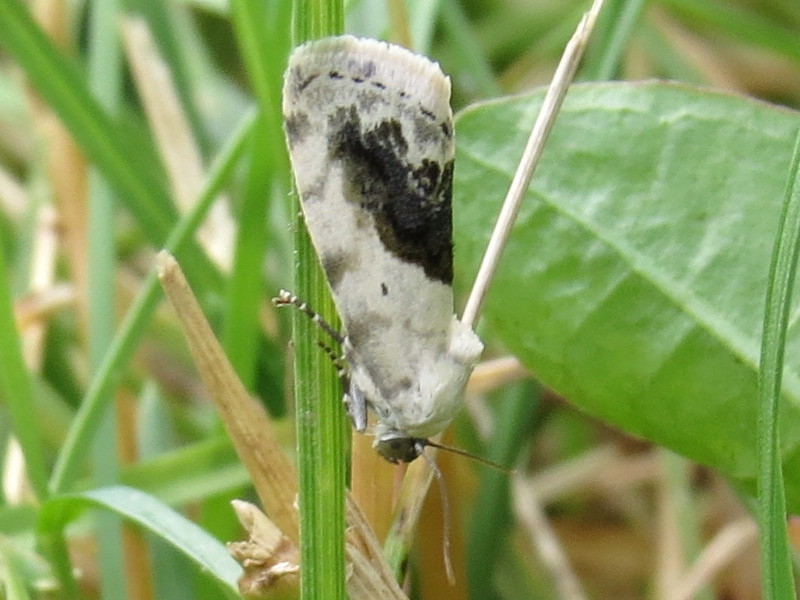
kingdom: Animalia
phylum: Arthropoda
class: Insecta
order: Lepidoptera
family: Noctuidae
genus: Acontia
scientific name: Acontia erastrioides
